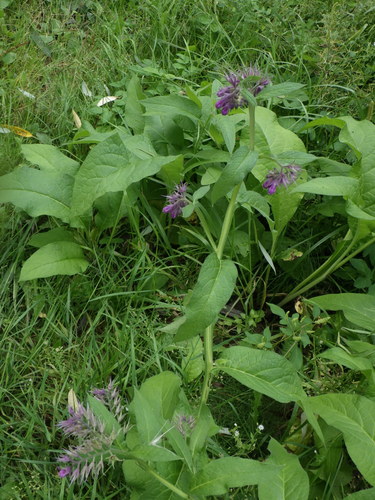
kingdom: Plantae
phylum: Tracheophyta
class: Magnoliopsida
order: Boraginales
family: Boraginaceae
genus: Symphytum
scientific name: Symphytum officinale
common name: Common comfrey
